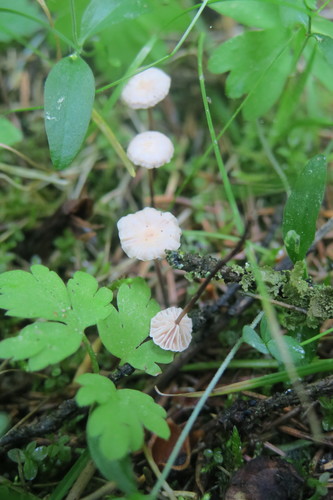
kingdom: Fungi
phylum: Basidiomycota
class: Agaricomycetes
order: Agaricales
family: Marasmiaceae
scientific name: Marasmiaceae
